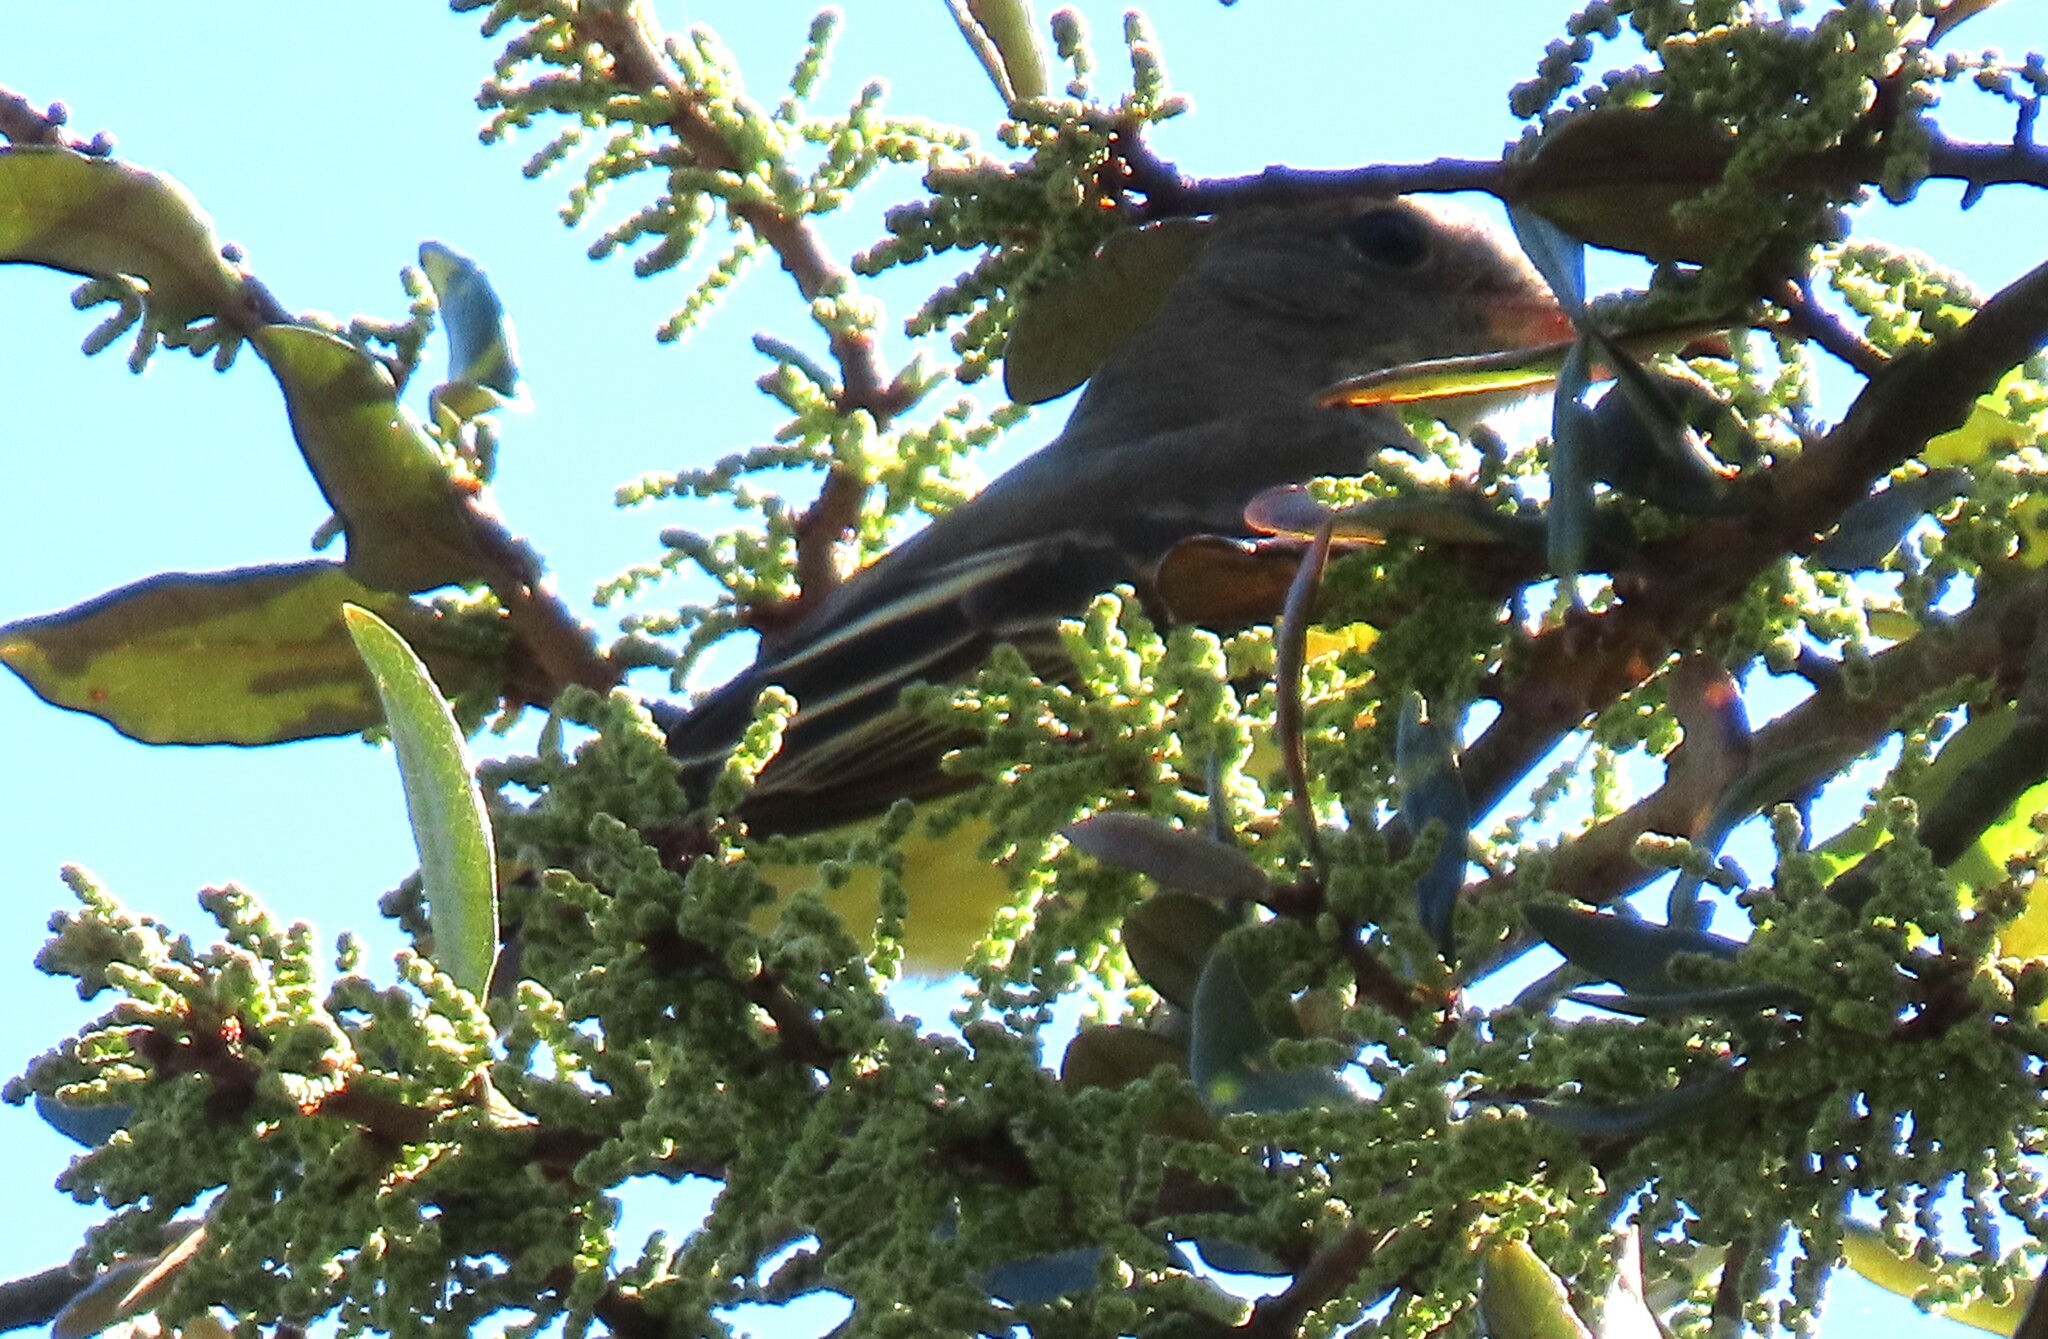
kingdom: Animalia
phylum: Chordata
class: Aves
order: Passeriformes
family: Tyrannidae
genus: Myiarchus
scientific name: Myiarchus crinitus
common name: Great crested flycatcher
